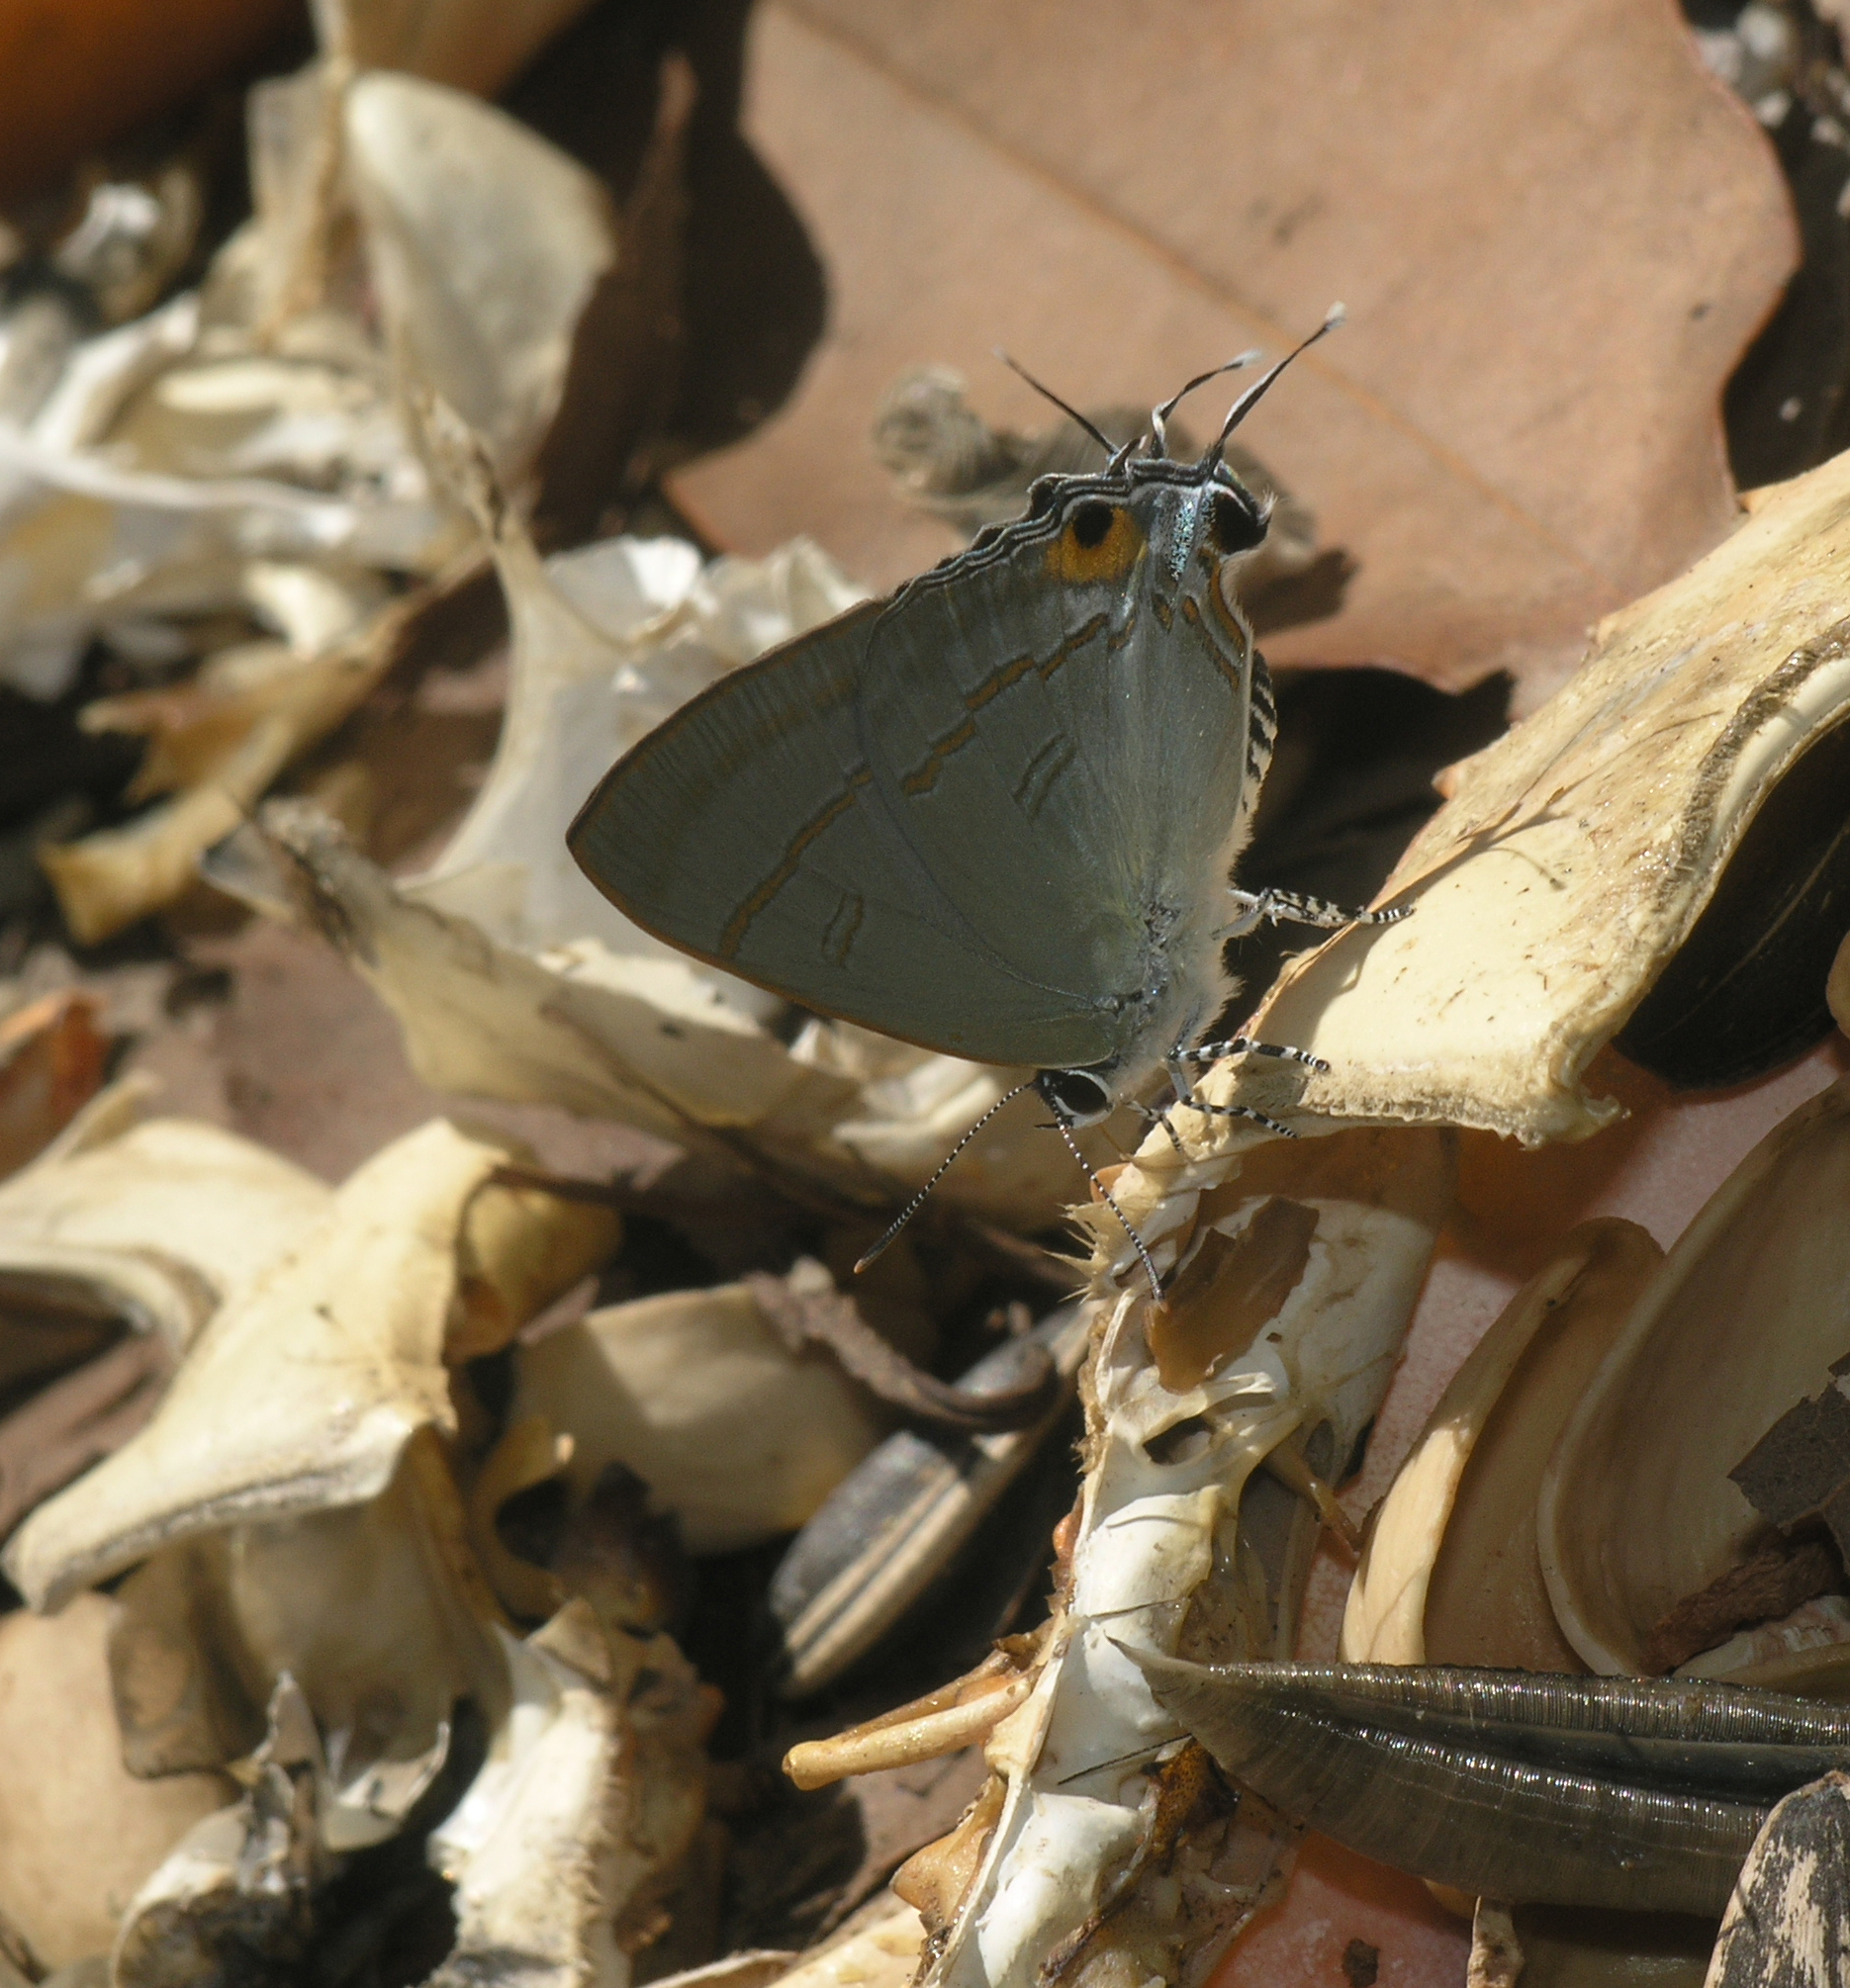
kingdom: Animalia
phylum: Arthropoda
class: Insecta
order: Lepidoptera
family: Lycaenidae
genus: Hypolycaena
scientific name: Hypolycaena erylus
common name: Common tit
